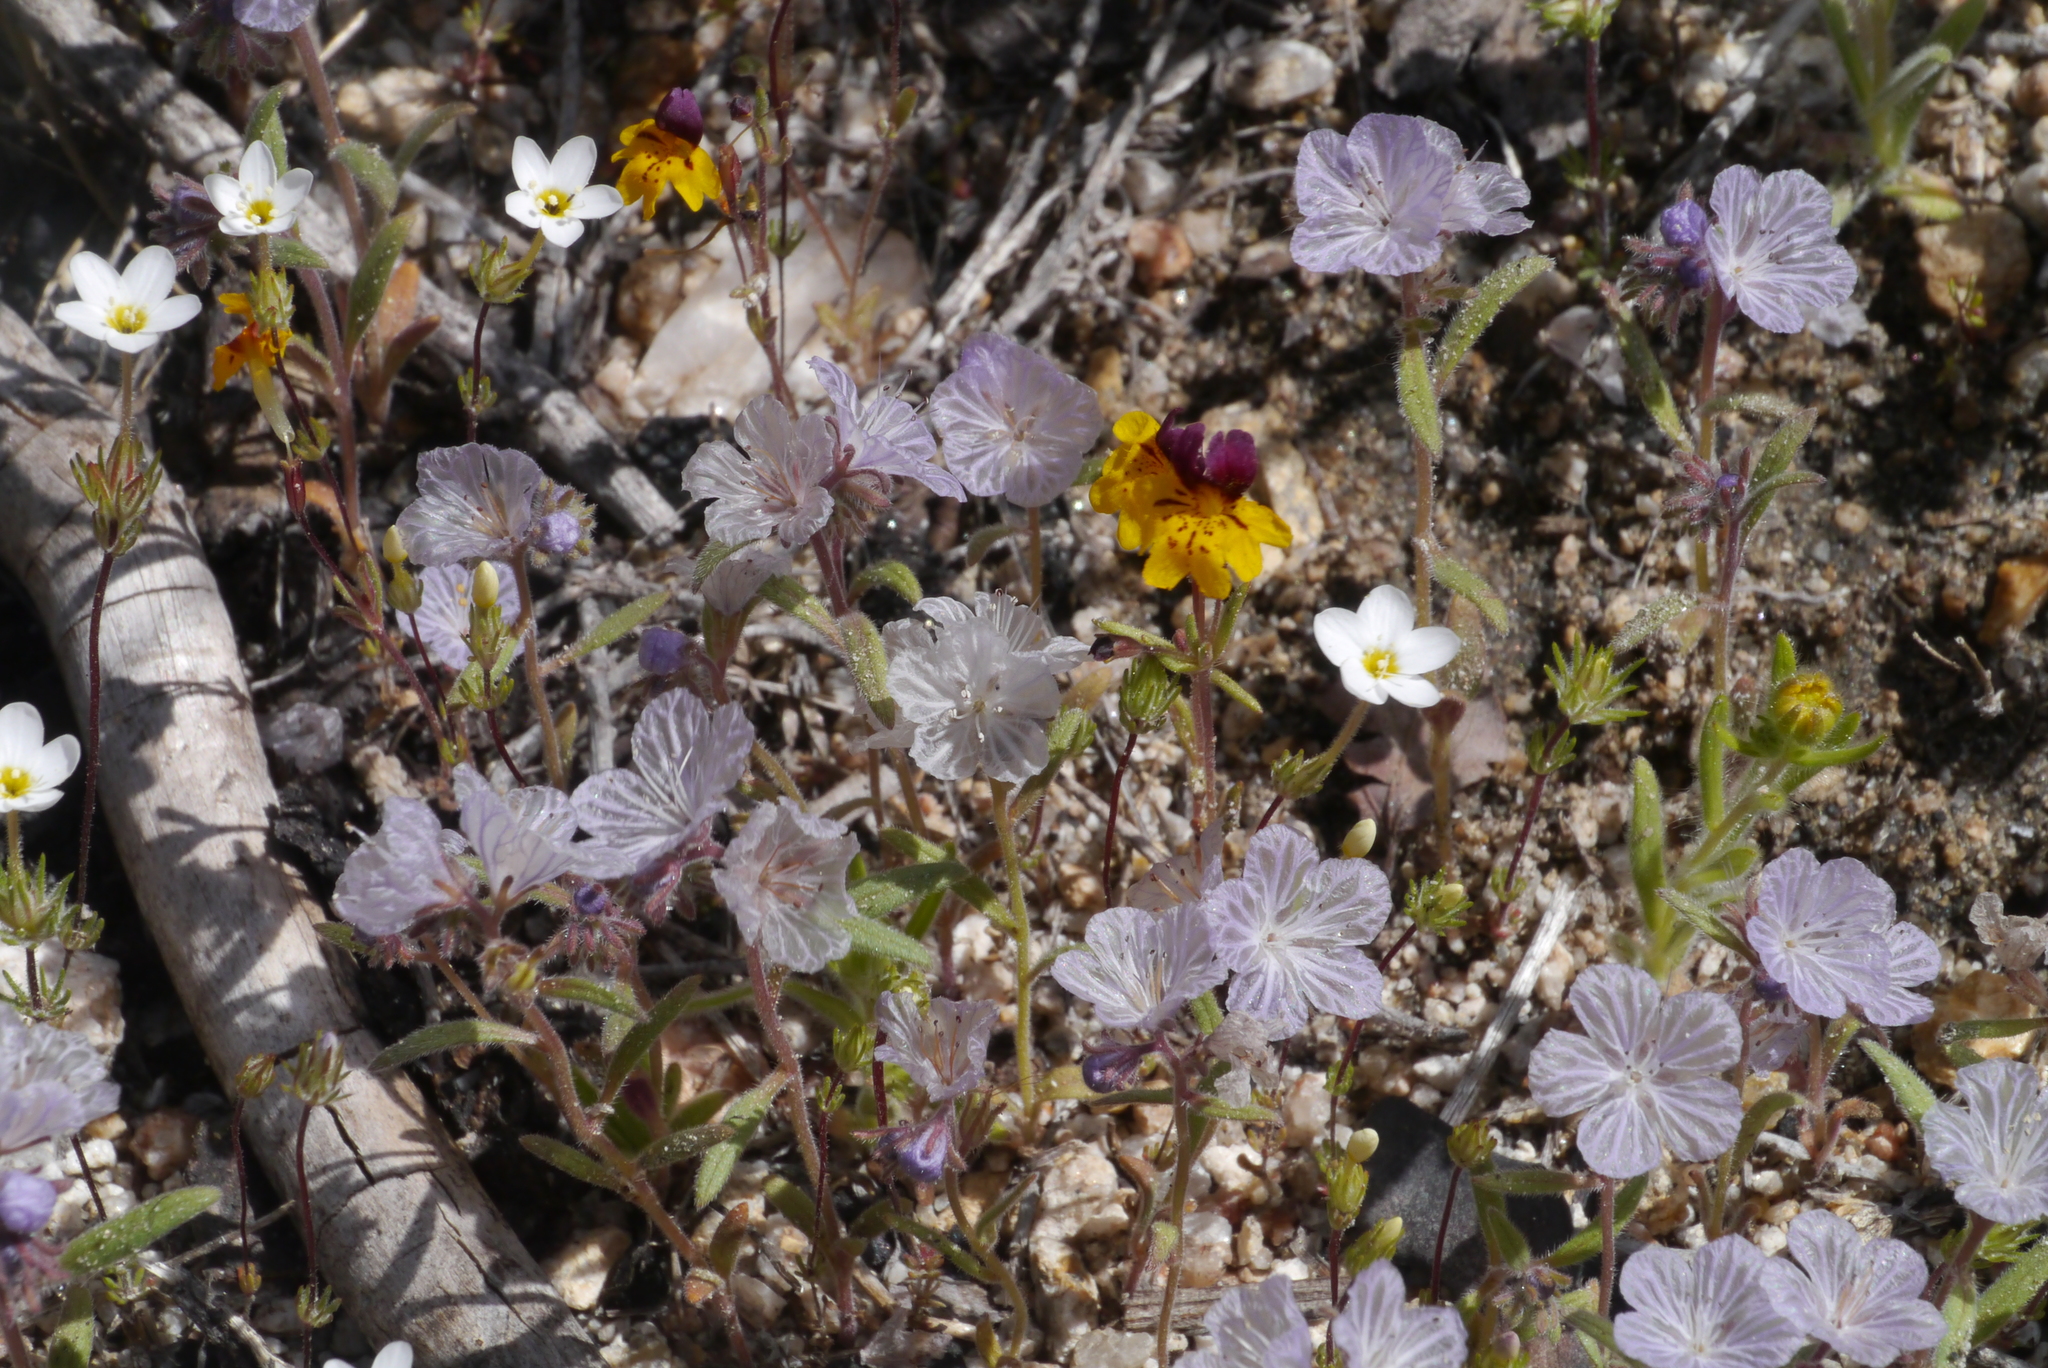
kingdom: Plantae
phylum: Tracheophyta
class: Magnoliopsida
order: Boraginales
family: Hydrophyllaceae
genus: Phacelia
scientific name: Phacelia exilis
